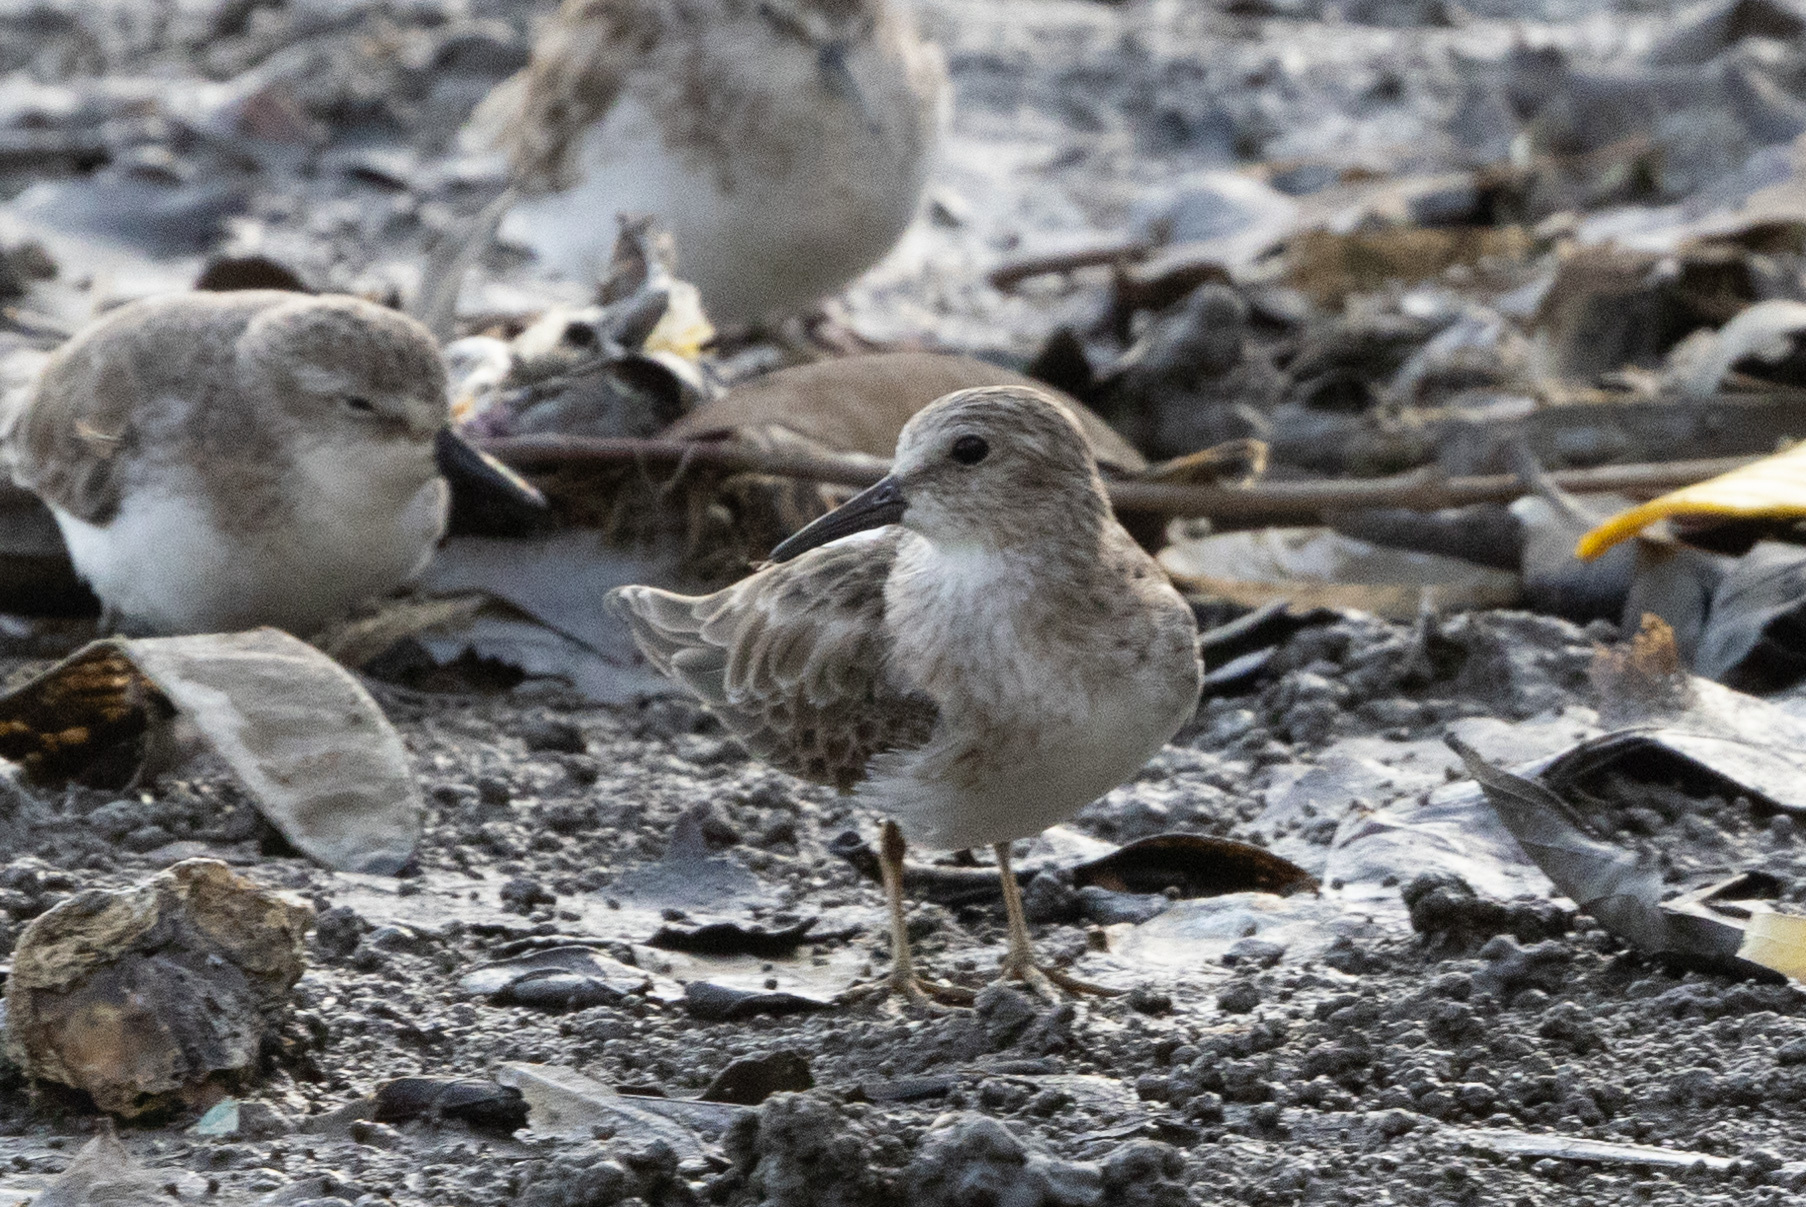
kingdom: Animalia
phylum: Chordata
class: Aves
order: Charadriiformes
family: Scolopacidae
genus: Calidris
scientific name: Calidris minutilla
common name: Least sandpiper
